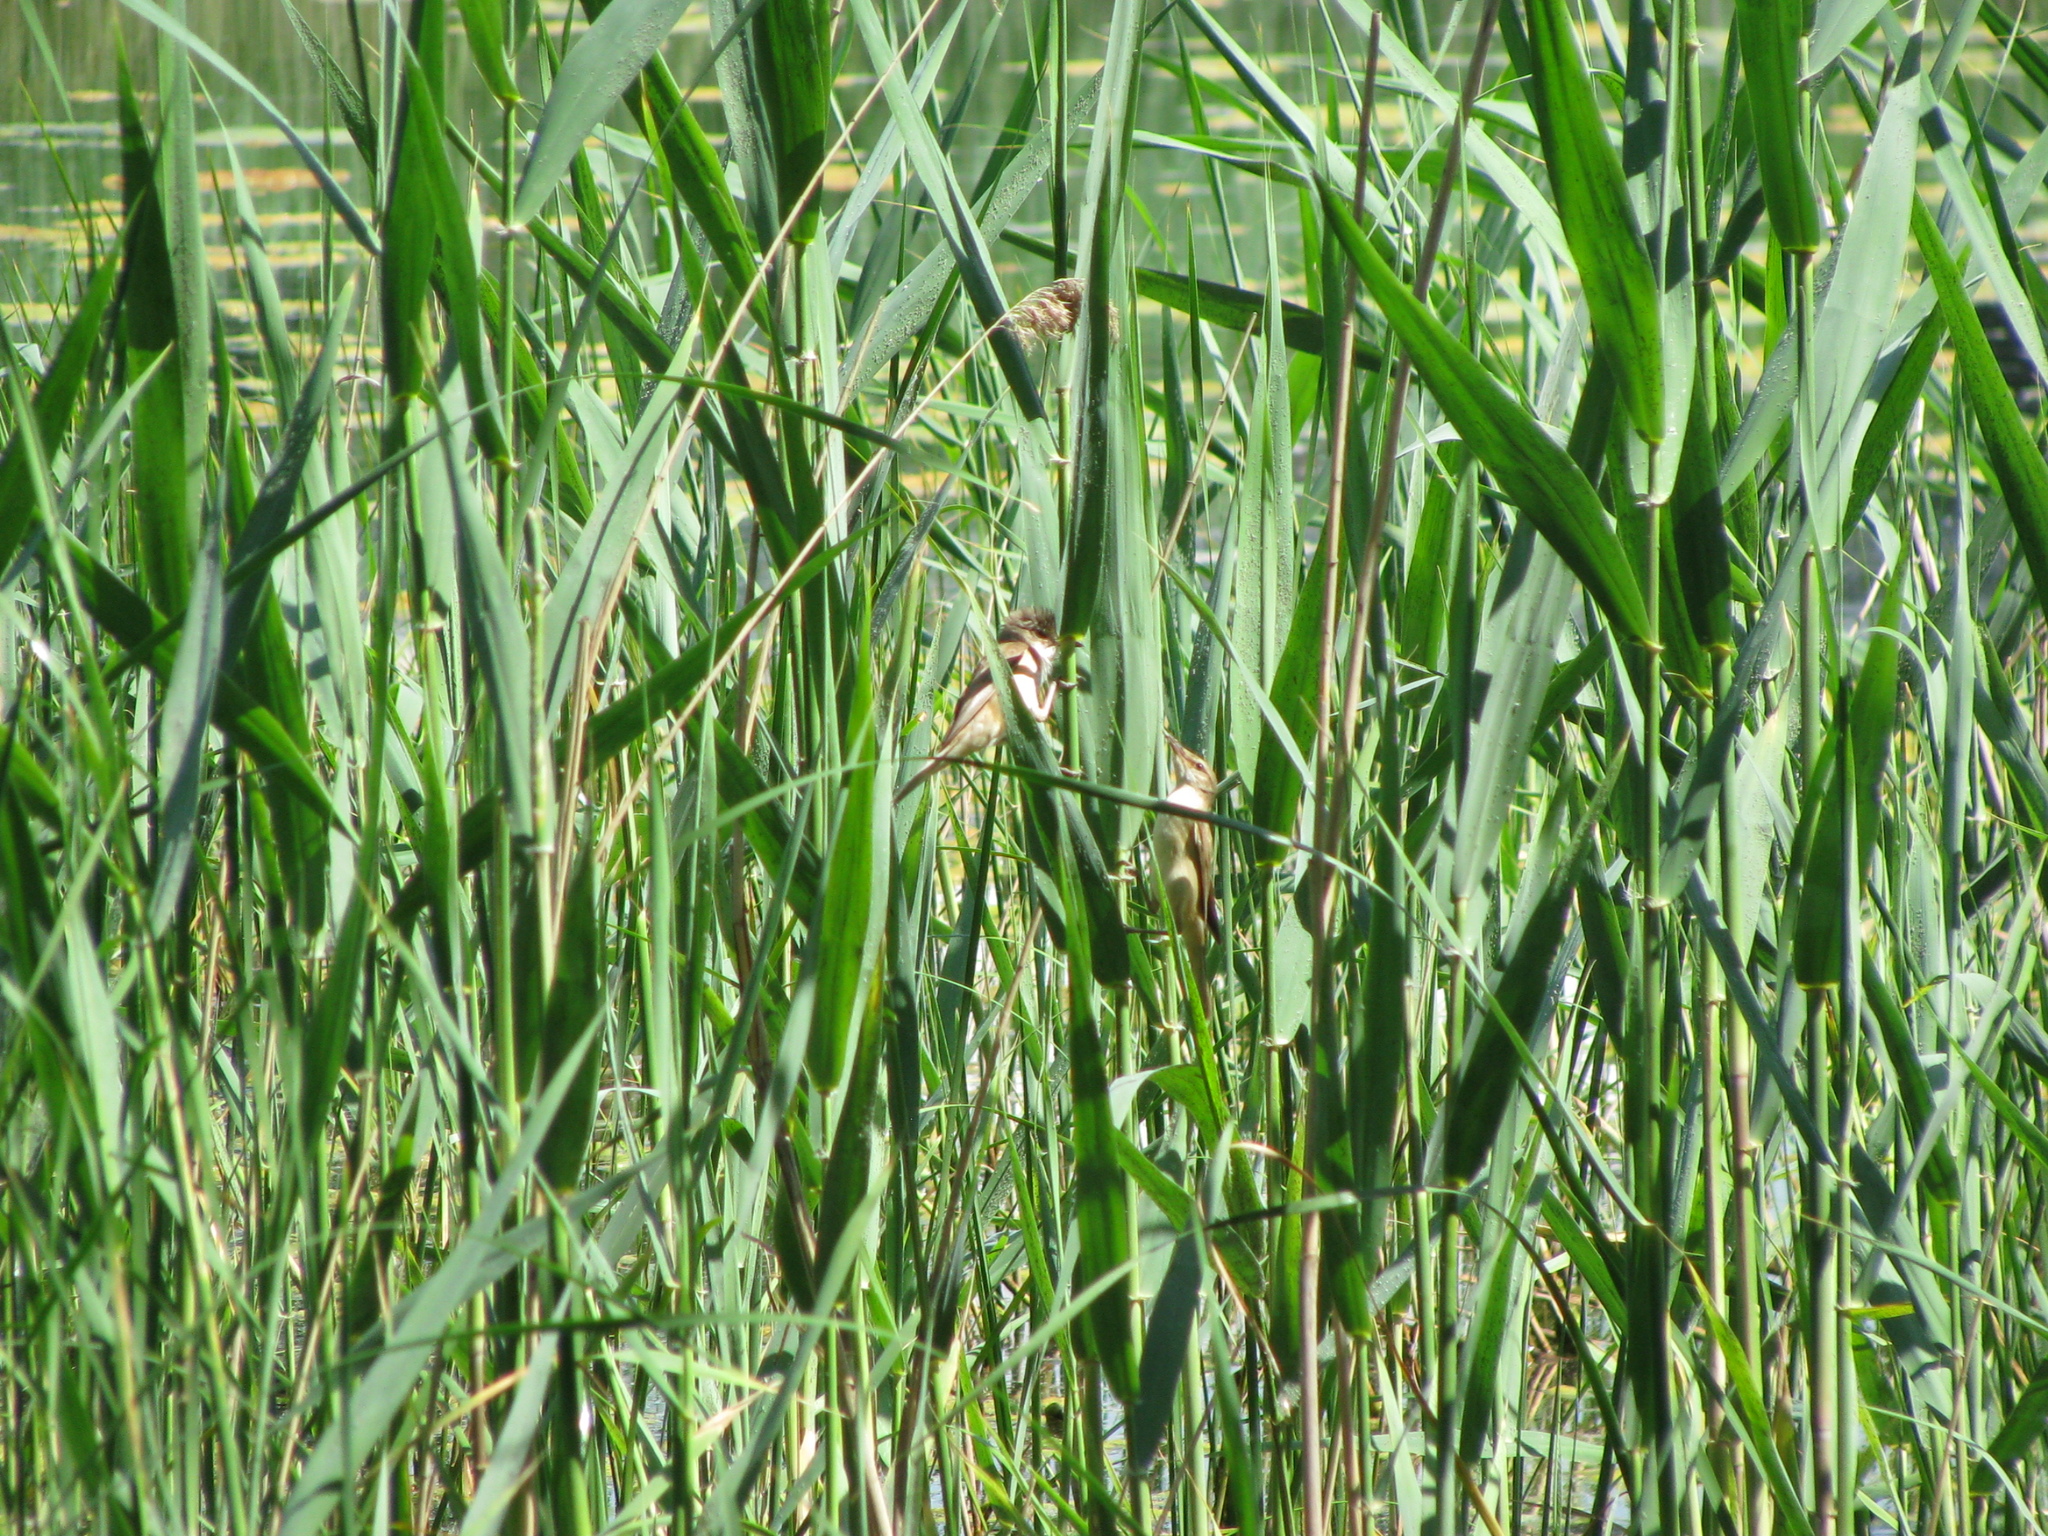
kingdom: Animalia
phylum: Chordata
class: Aves
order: Passeriformes
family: Acrocephalidae
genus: Acrocephalus
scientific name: Acrocephalus arundinaceus
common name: Great reed warbler
